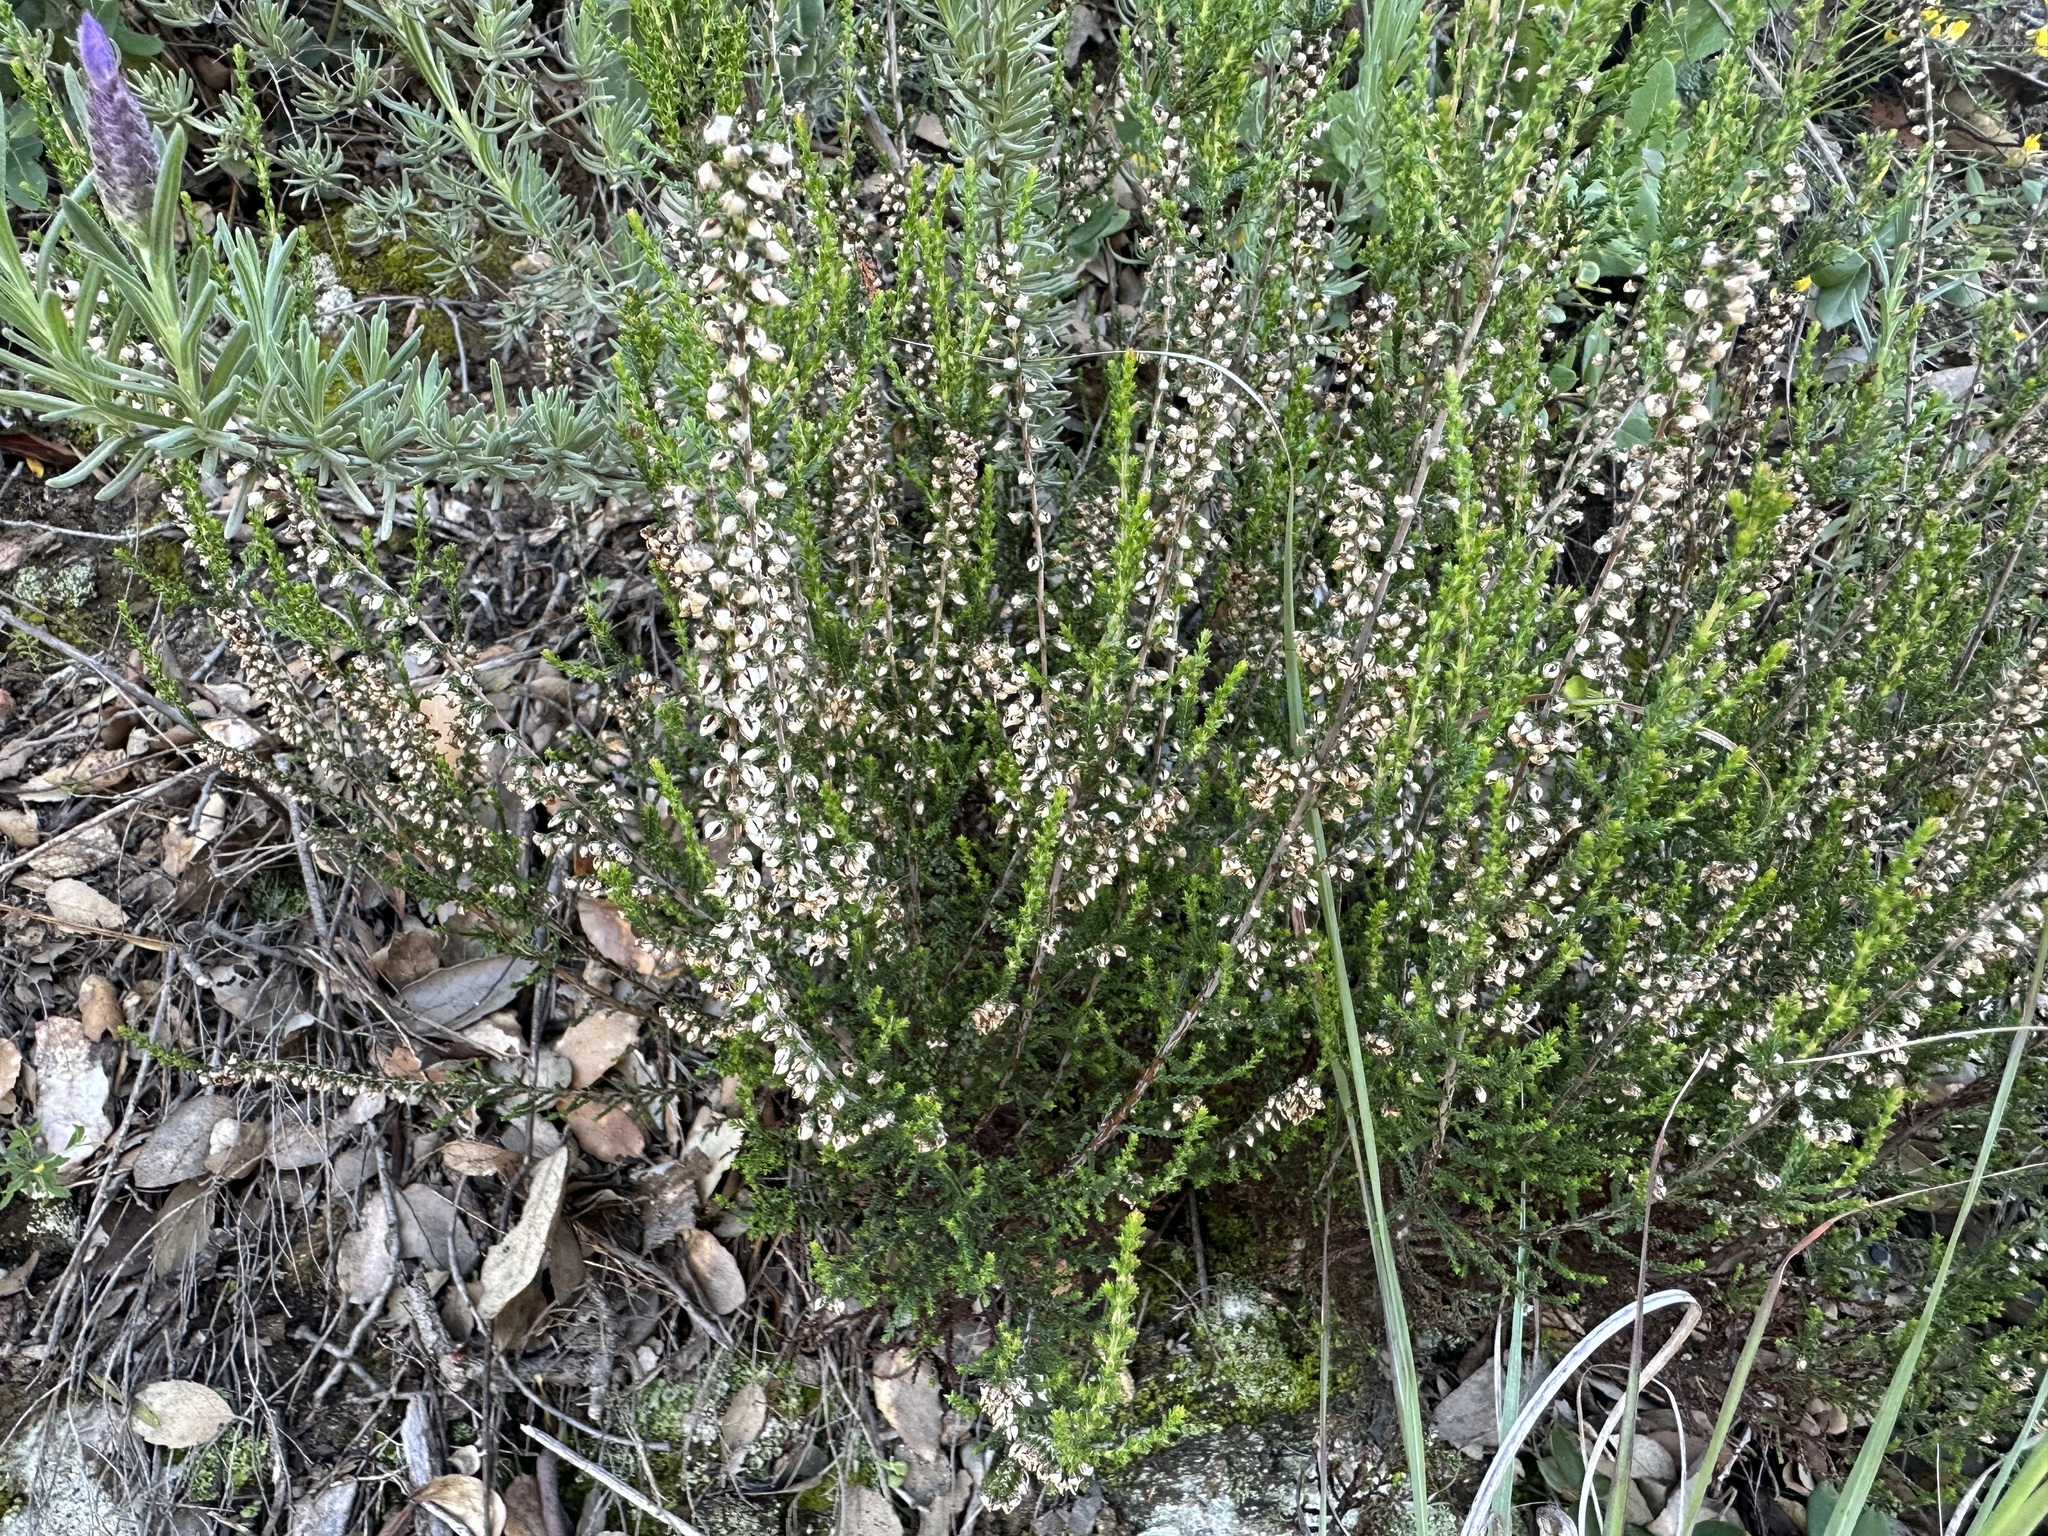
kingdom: Plantae
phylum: Tracheophyta
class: Magnoliopsida
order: Ericales
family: Ericaceae
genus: Calluna
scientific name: Calluna vulgaris
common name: Heather
